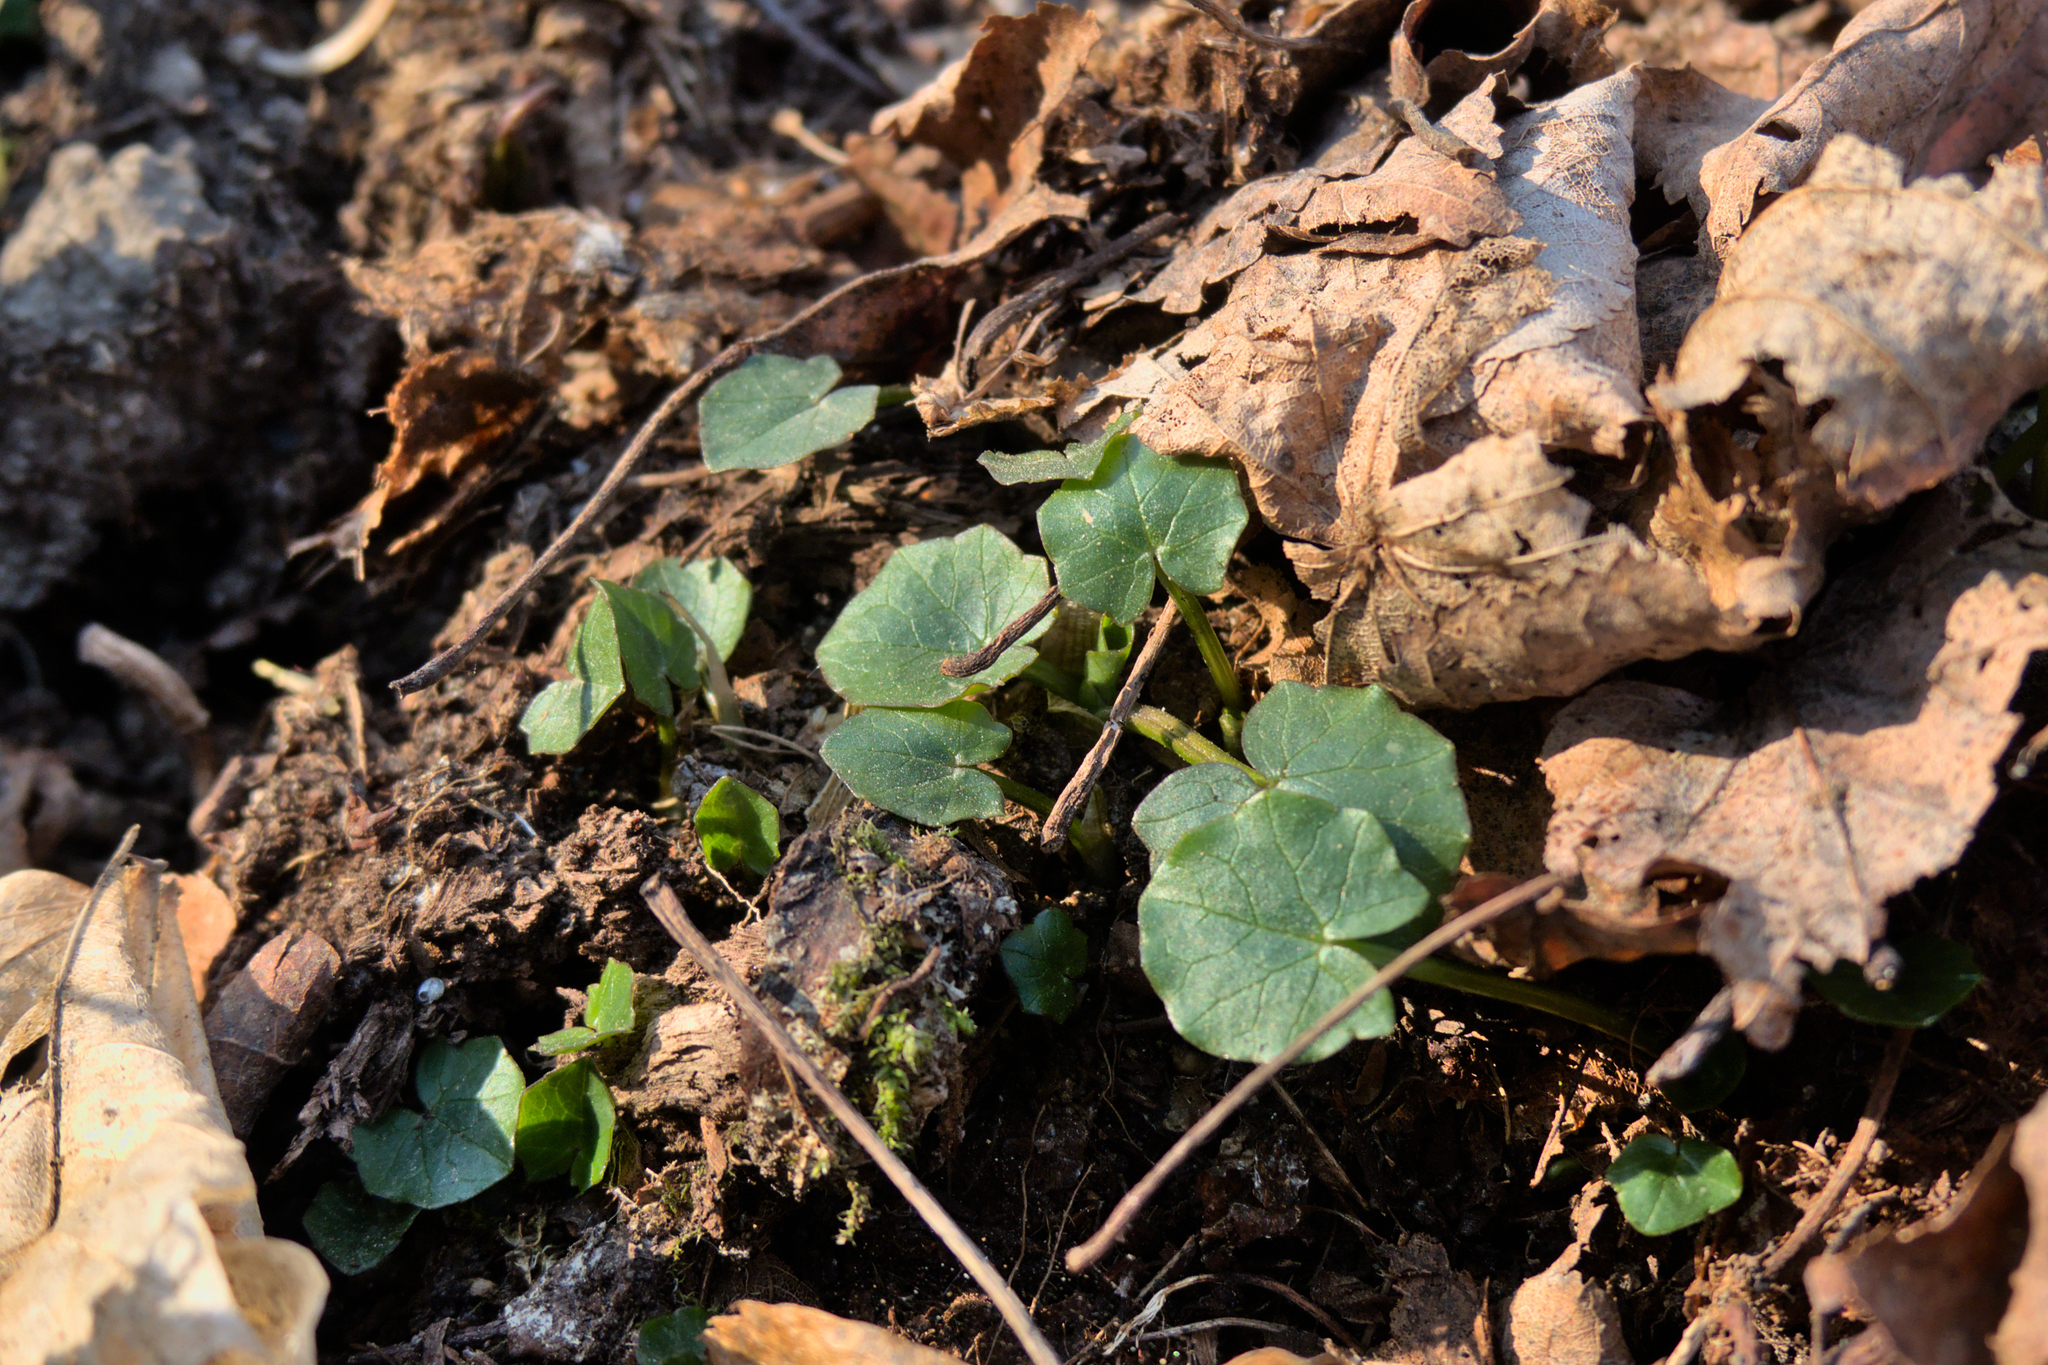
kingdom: Plantae
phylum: Tracheophyta
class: Magnoliopsida
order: Ranunculales
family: Ranunculaceae
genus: Ficaria
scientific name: Ficaria verna
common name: Lesser celandine
